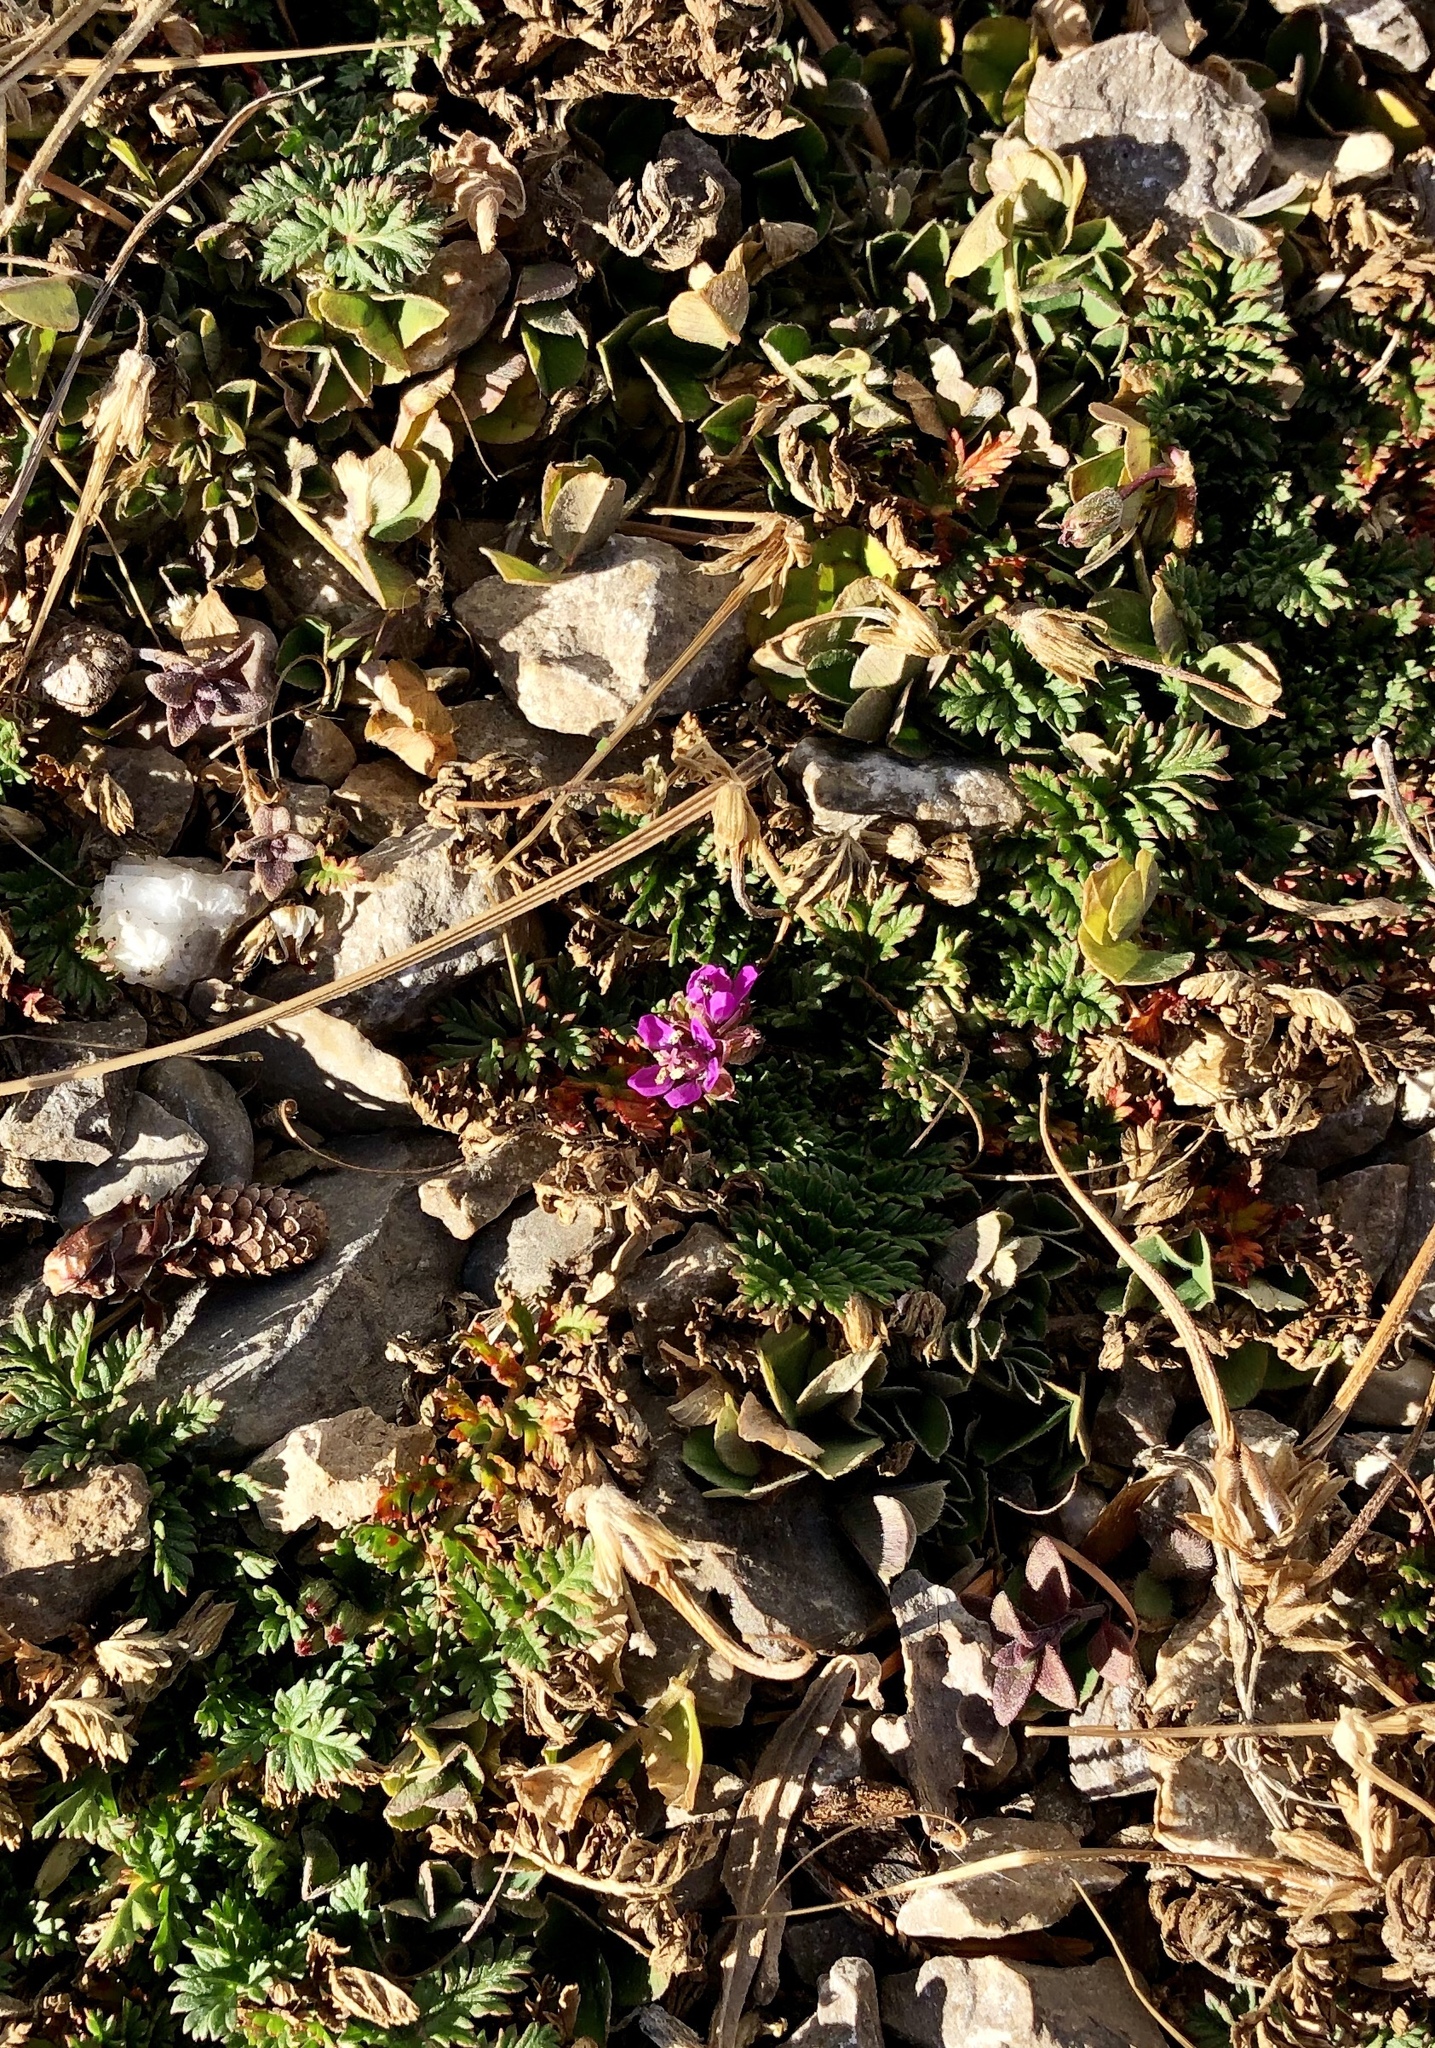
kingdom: Plantae
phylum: Tracheophyta
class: Magnoliopsida
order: Geraniales
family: Geraniaceae
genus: Erodium
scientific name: Erodium cicutarium
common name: Common stork's-bill
